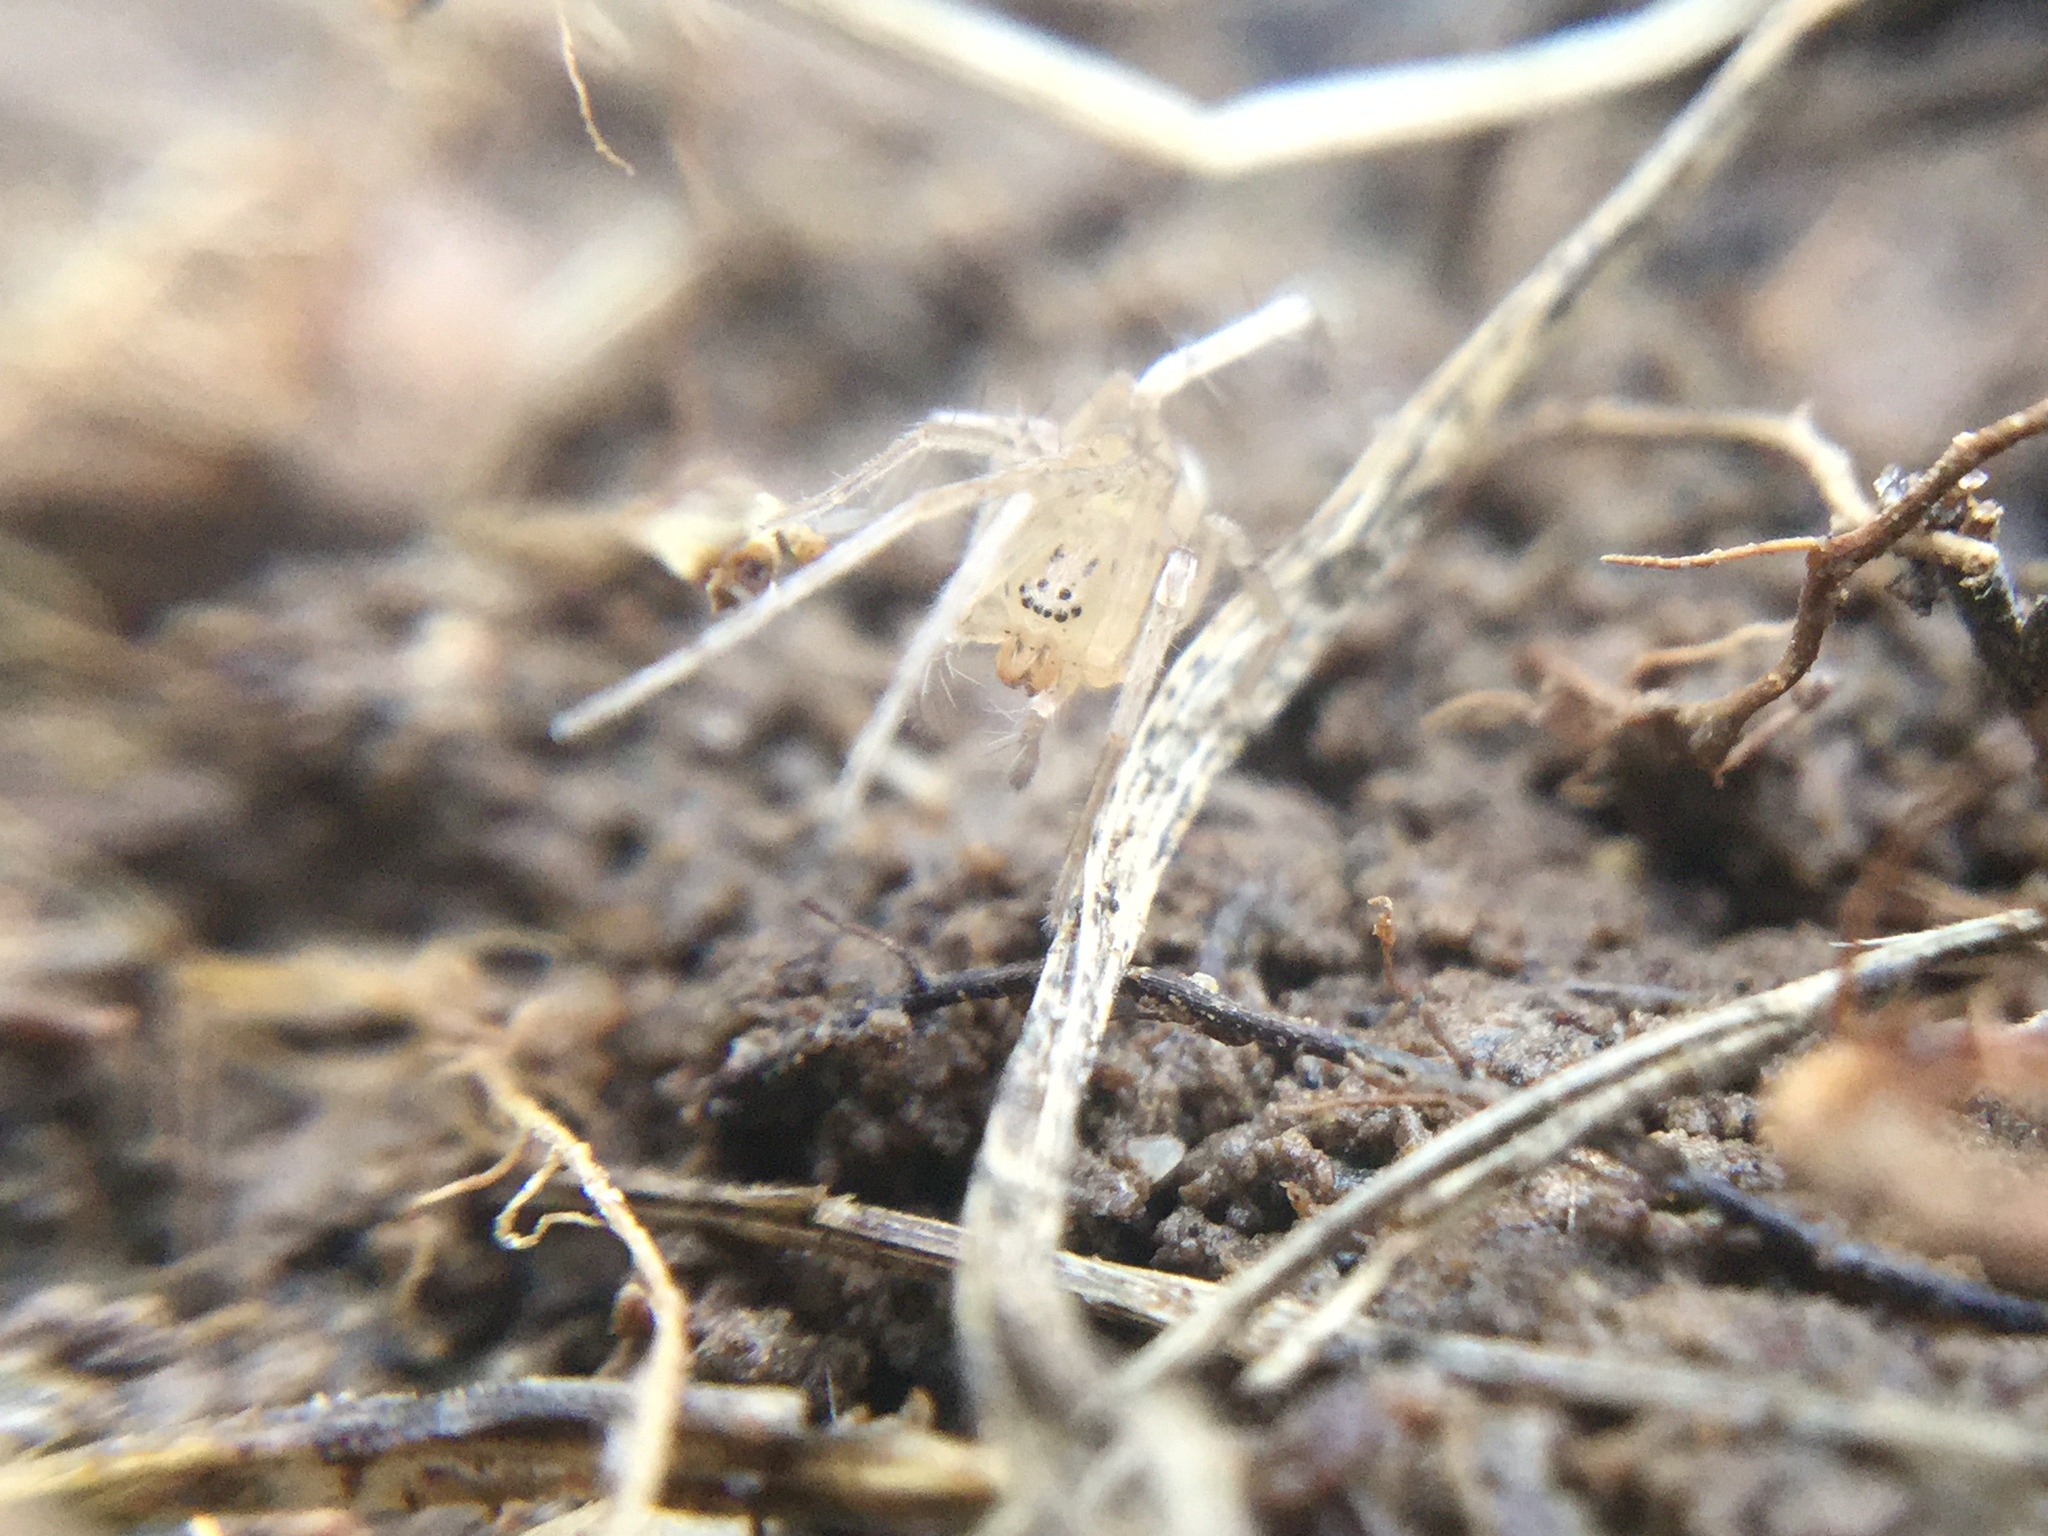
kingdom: Animalia
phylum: Arthropoda
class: Arachnida
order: Araneae
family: Anyphaenidae
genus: Wulfila
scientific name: Wulfila saltabundus
